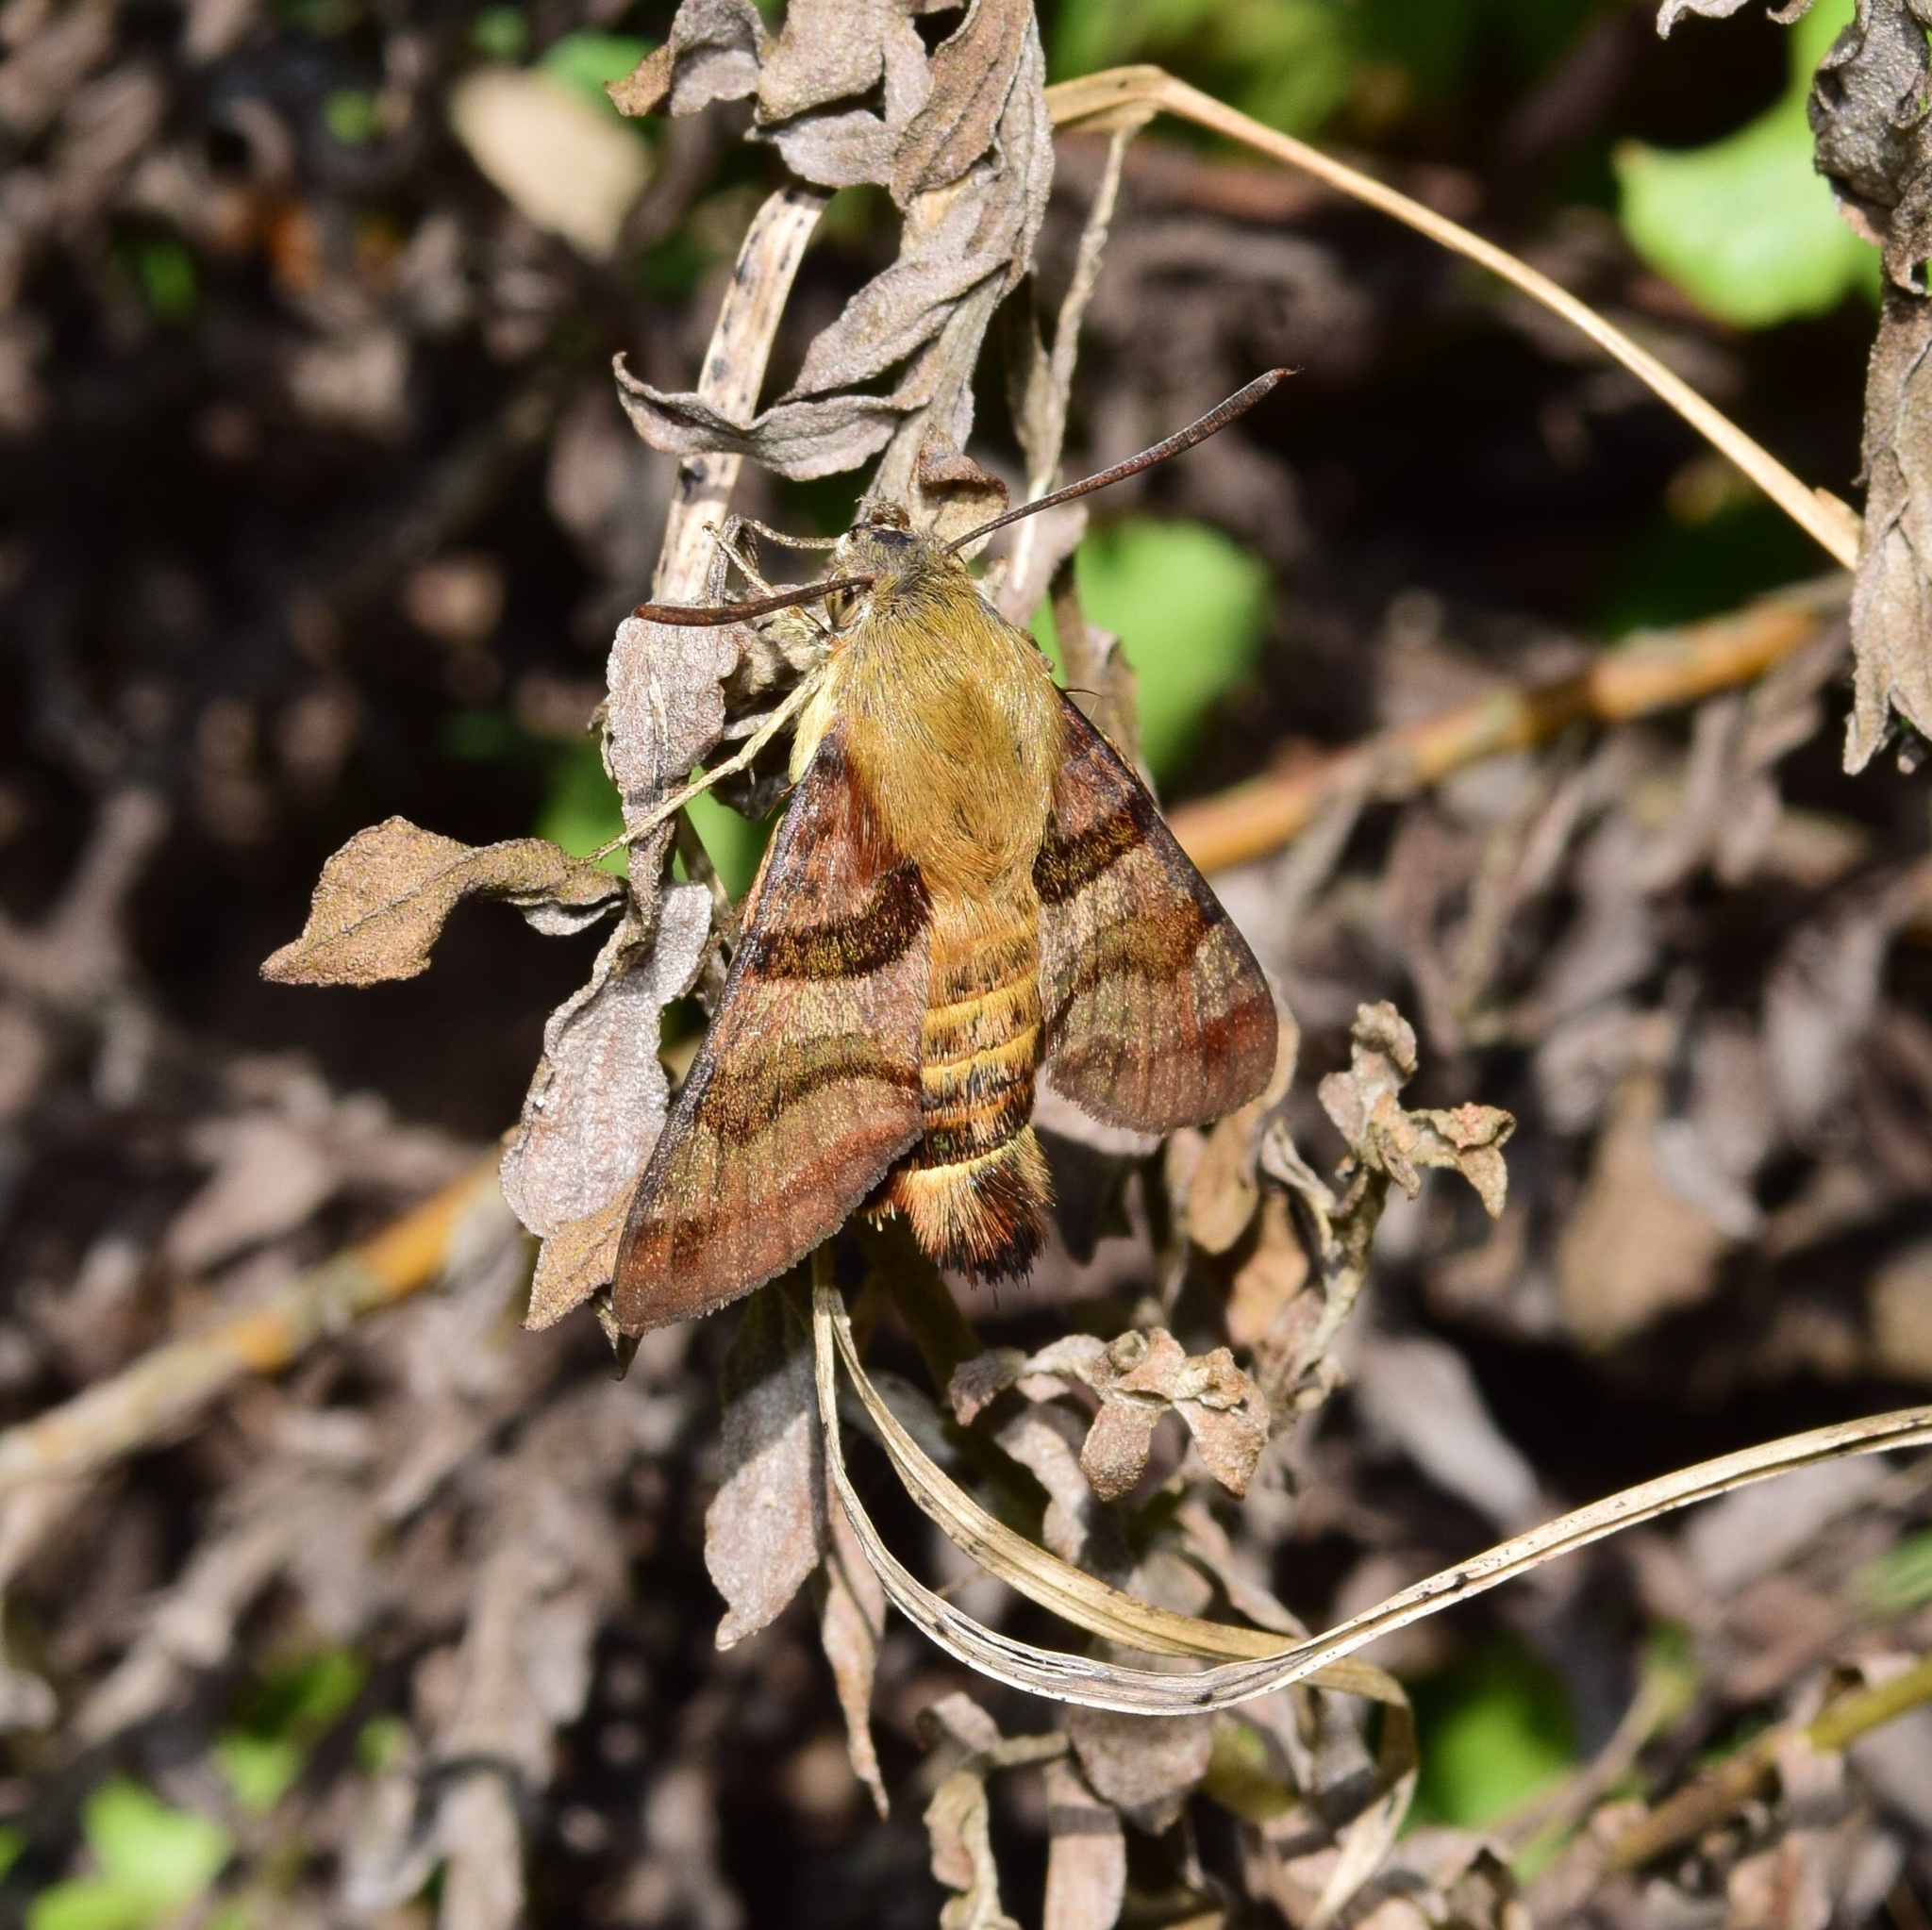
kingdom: Animalia
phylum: Arthropoda
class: Insecta
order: Lepidoptera
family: Sphingidae
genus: Macroglossum
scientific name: Macroglossum trochilus
